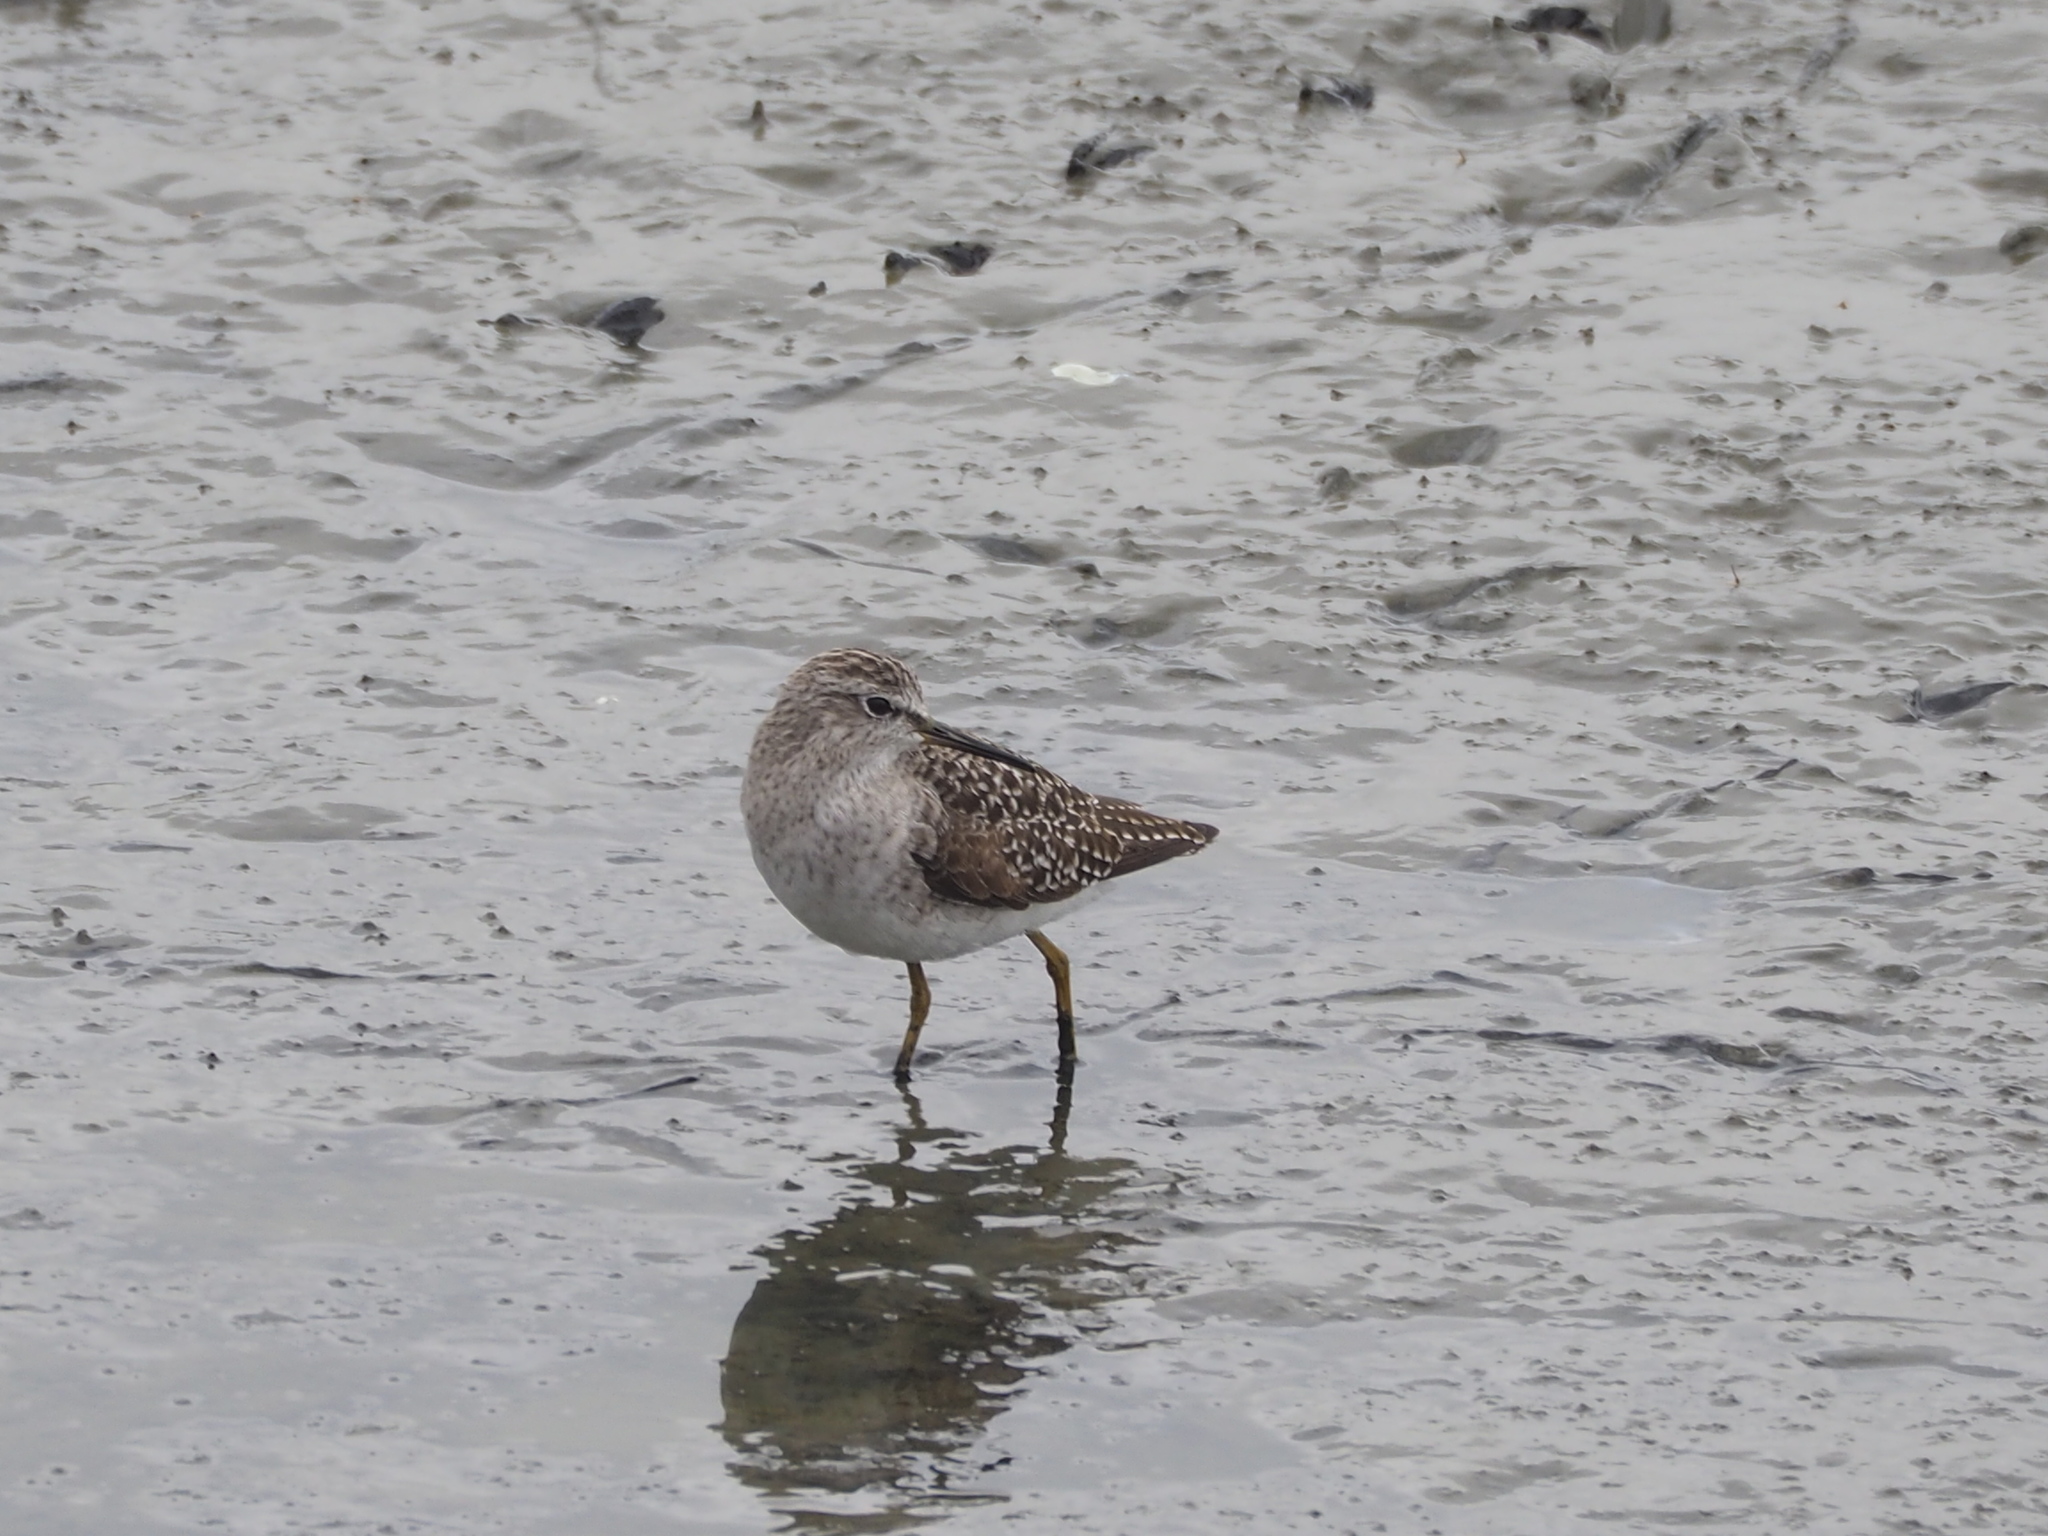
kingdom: Animalia
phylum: Chordata
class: Aves
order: Charadriiformes
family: Scolopacidae
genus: Tringa
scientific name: Tringa glareola
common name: Wood sandpiper
